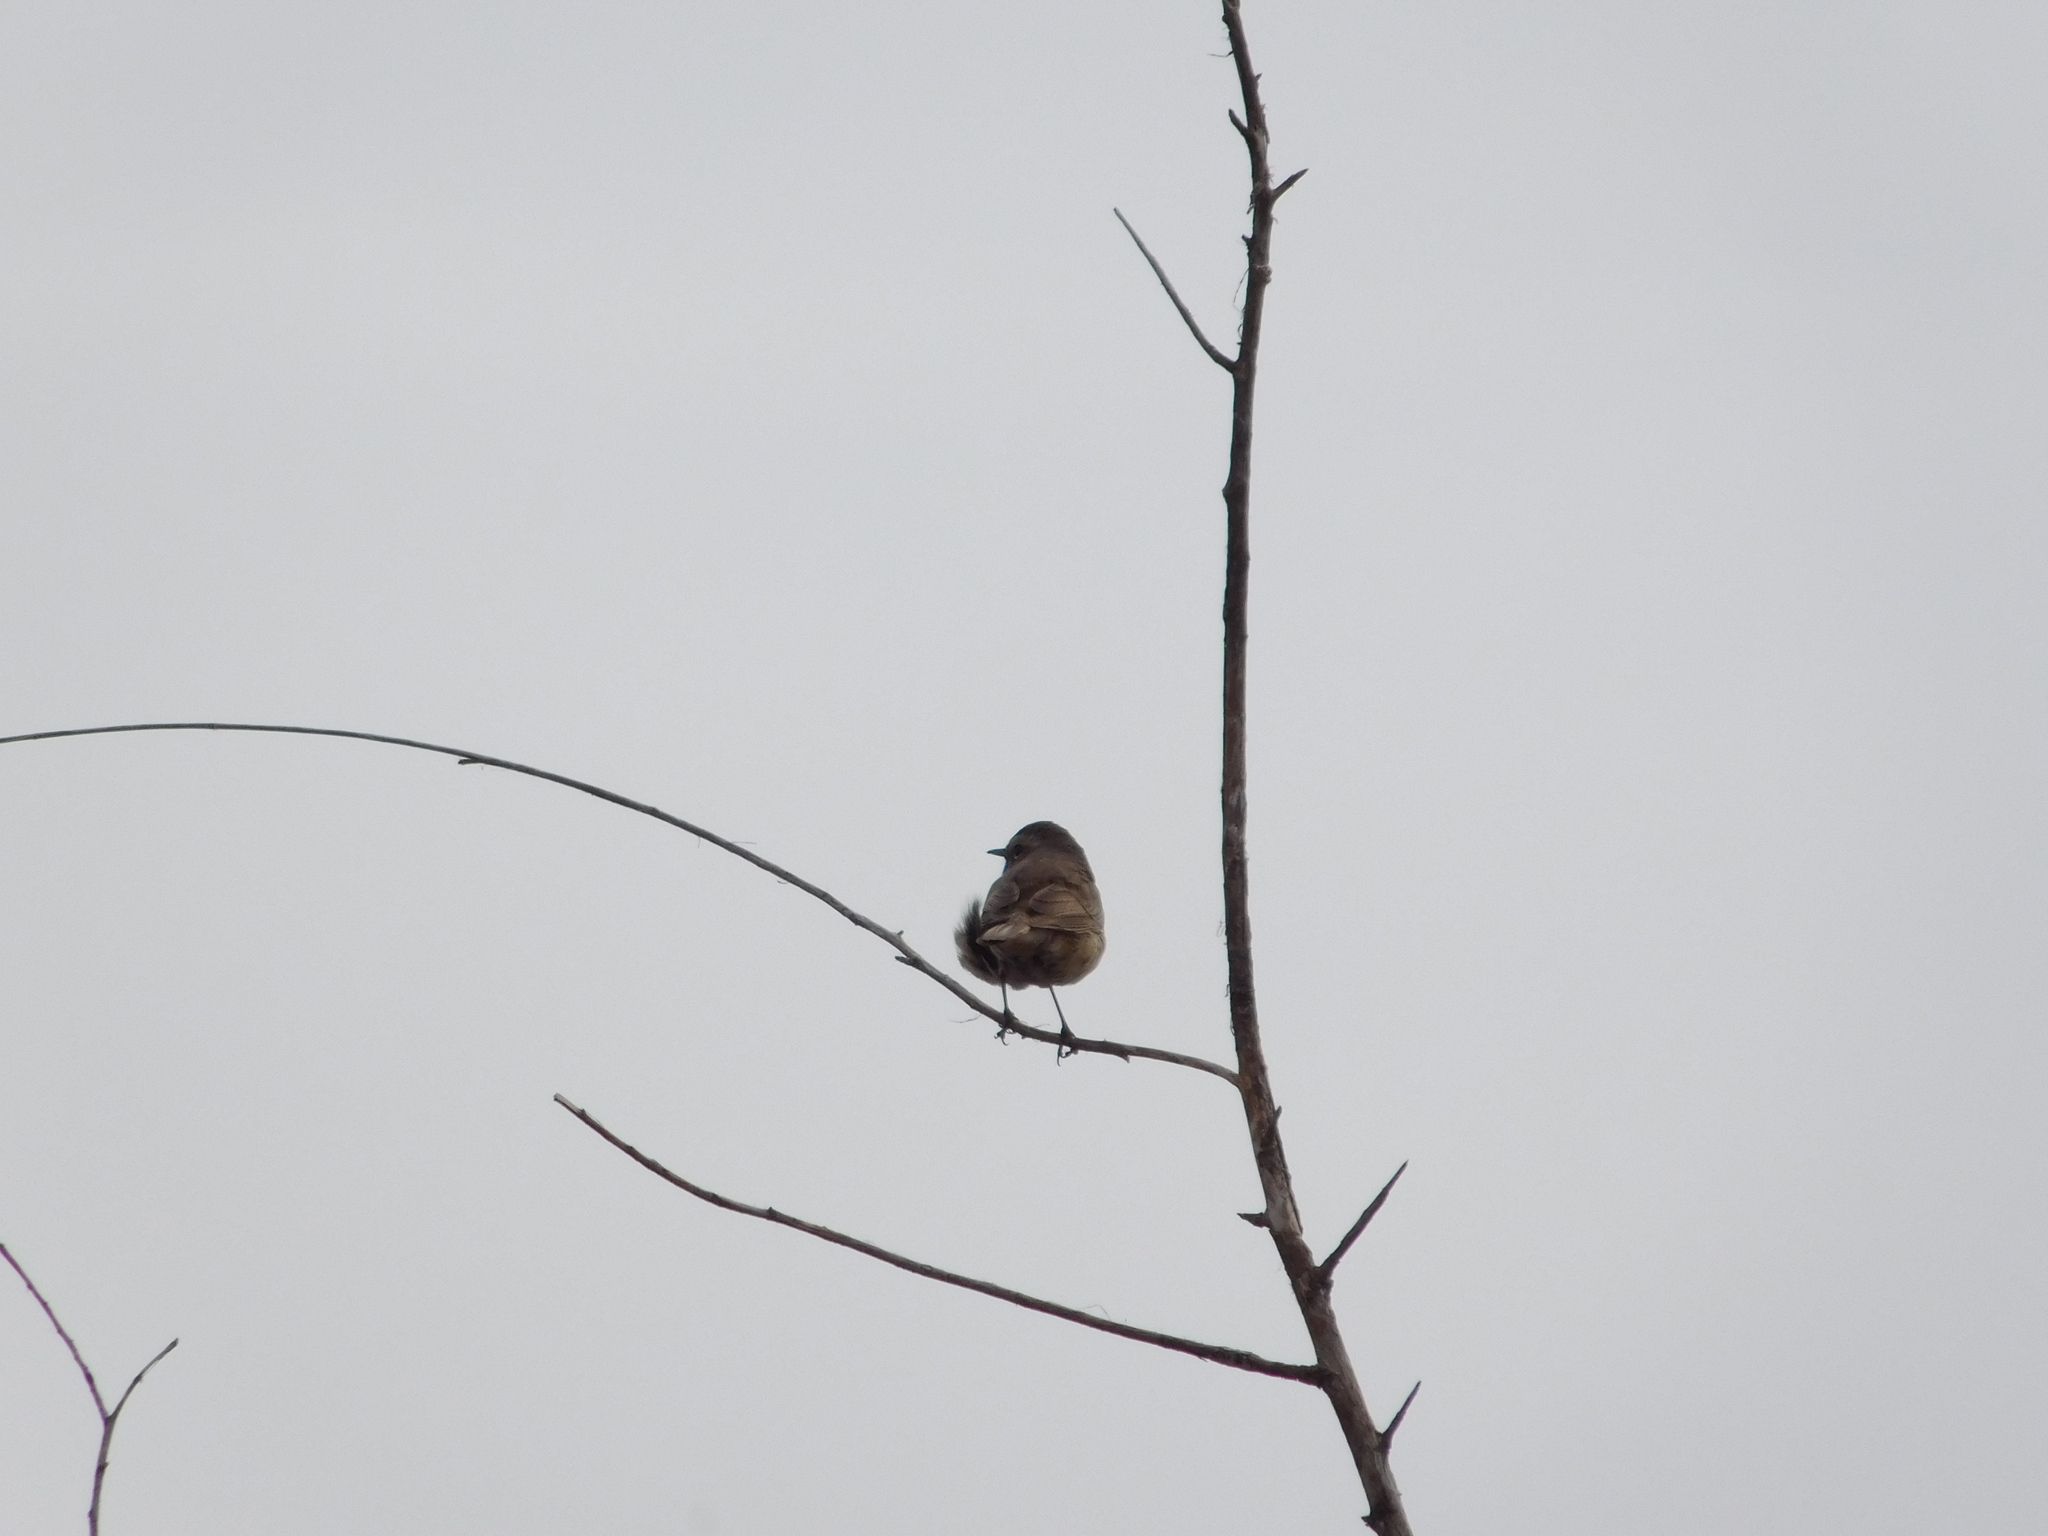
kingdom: Animalia
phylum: Chordata
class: Aves
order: Passeriformes
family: Muscicapidae
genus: Luscinia
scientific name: Luscinia svecica
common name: Bluethroat
